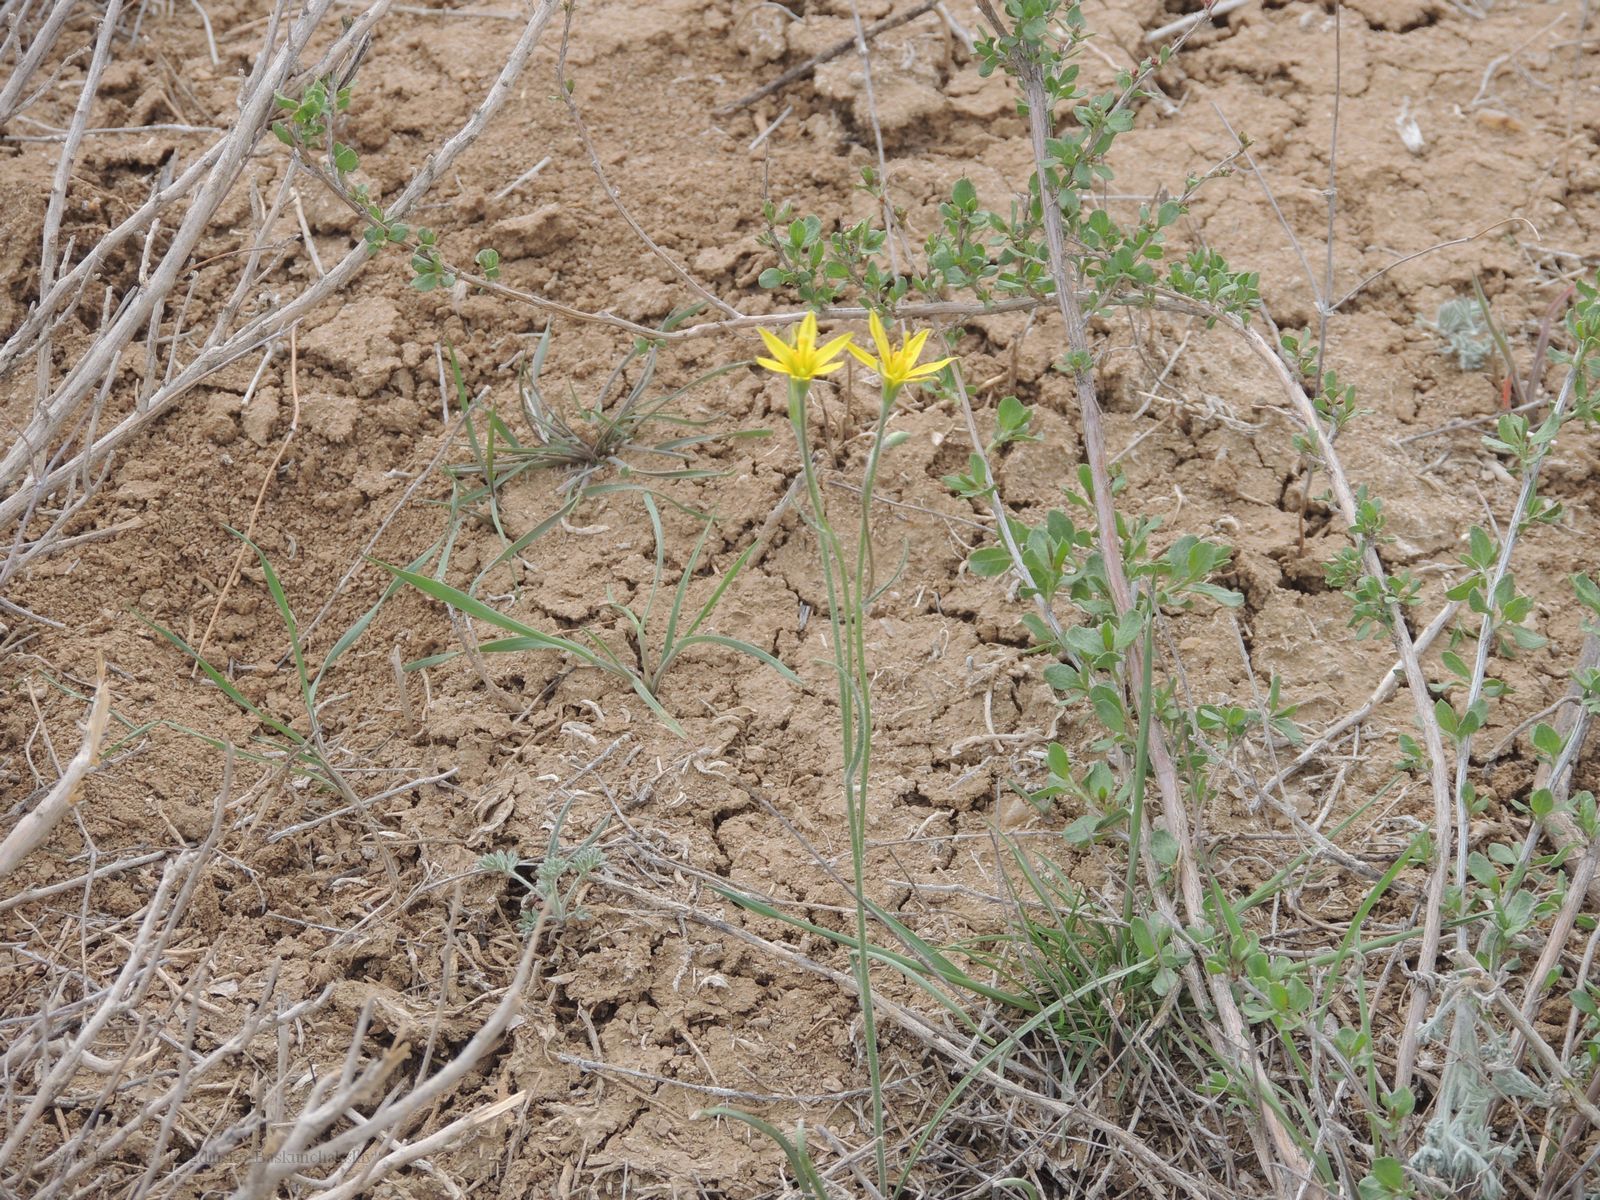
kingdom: Plantae
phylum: Tracheophyta
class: Liliopsida
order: Liliales
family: Liliaceae
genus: Gagea
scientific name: Gagea bulbifera
